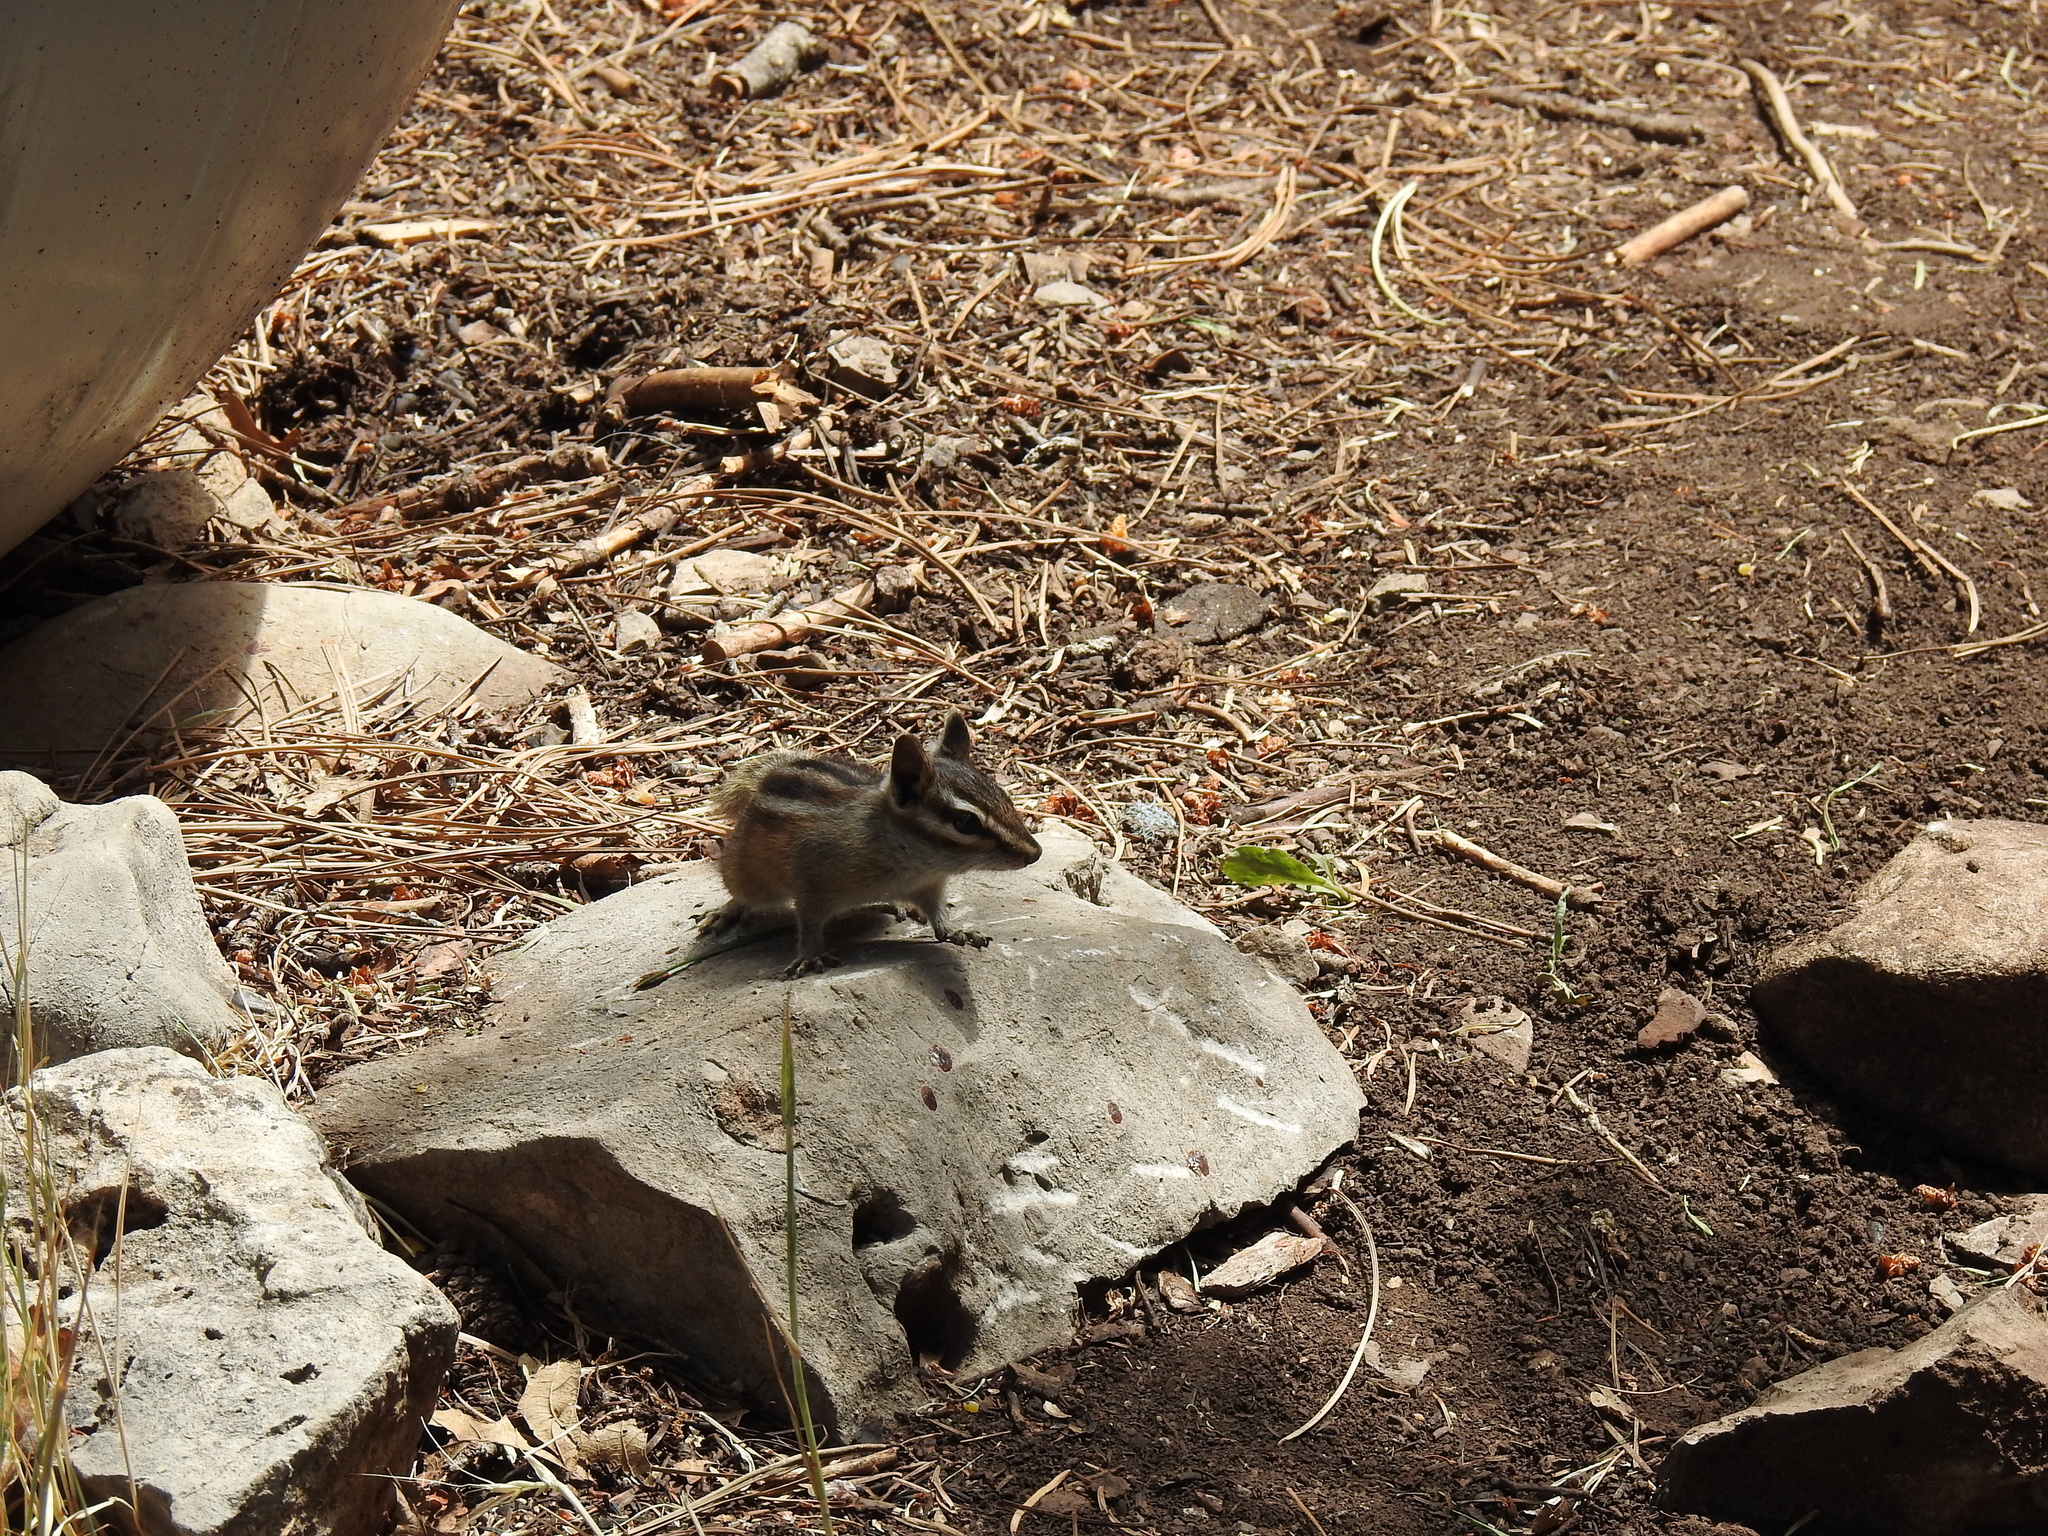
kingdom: Animalia
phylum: Chordata
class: Mammalia
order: Rodentia
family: Sciuridae
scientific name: Sciuridae
